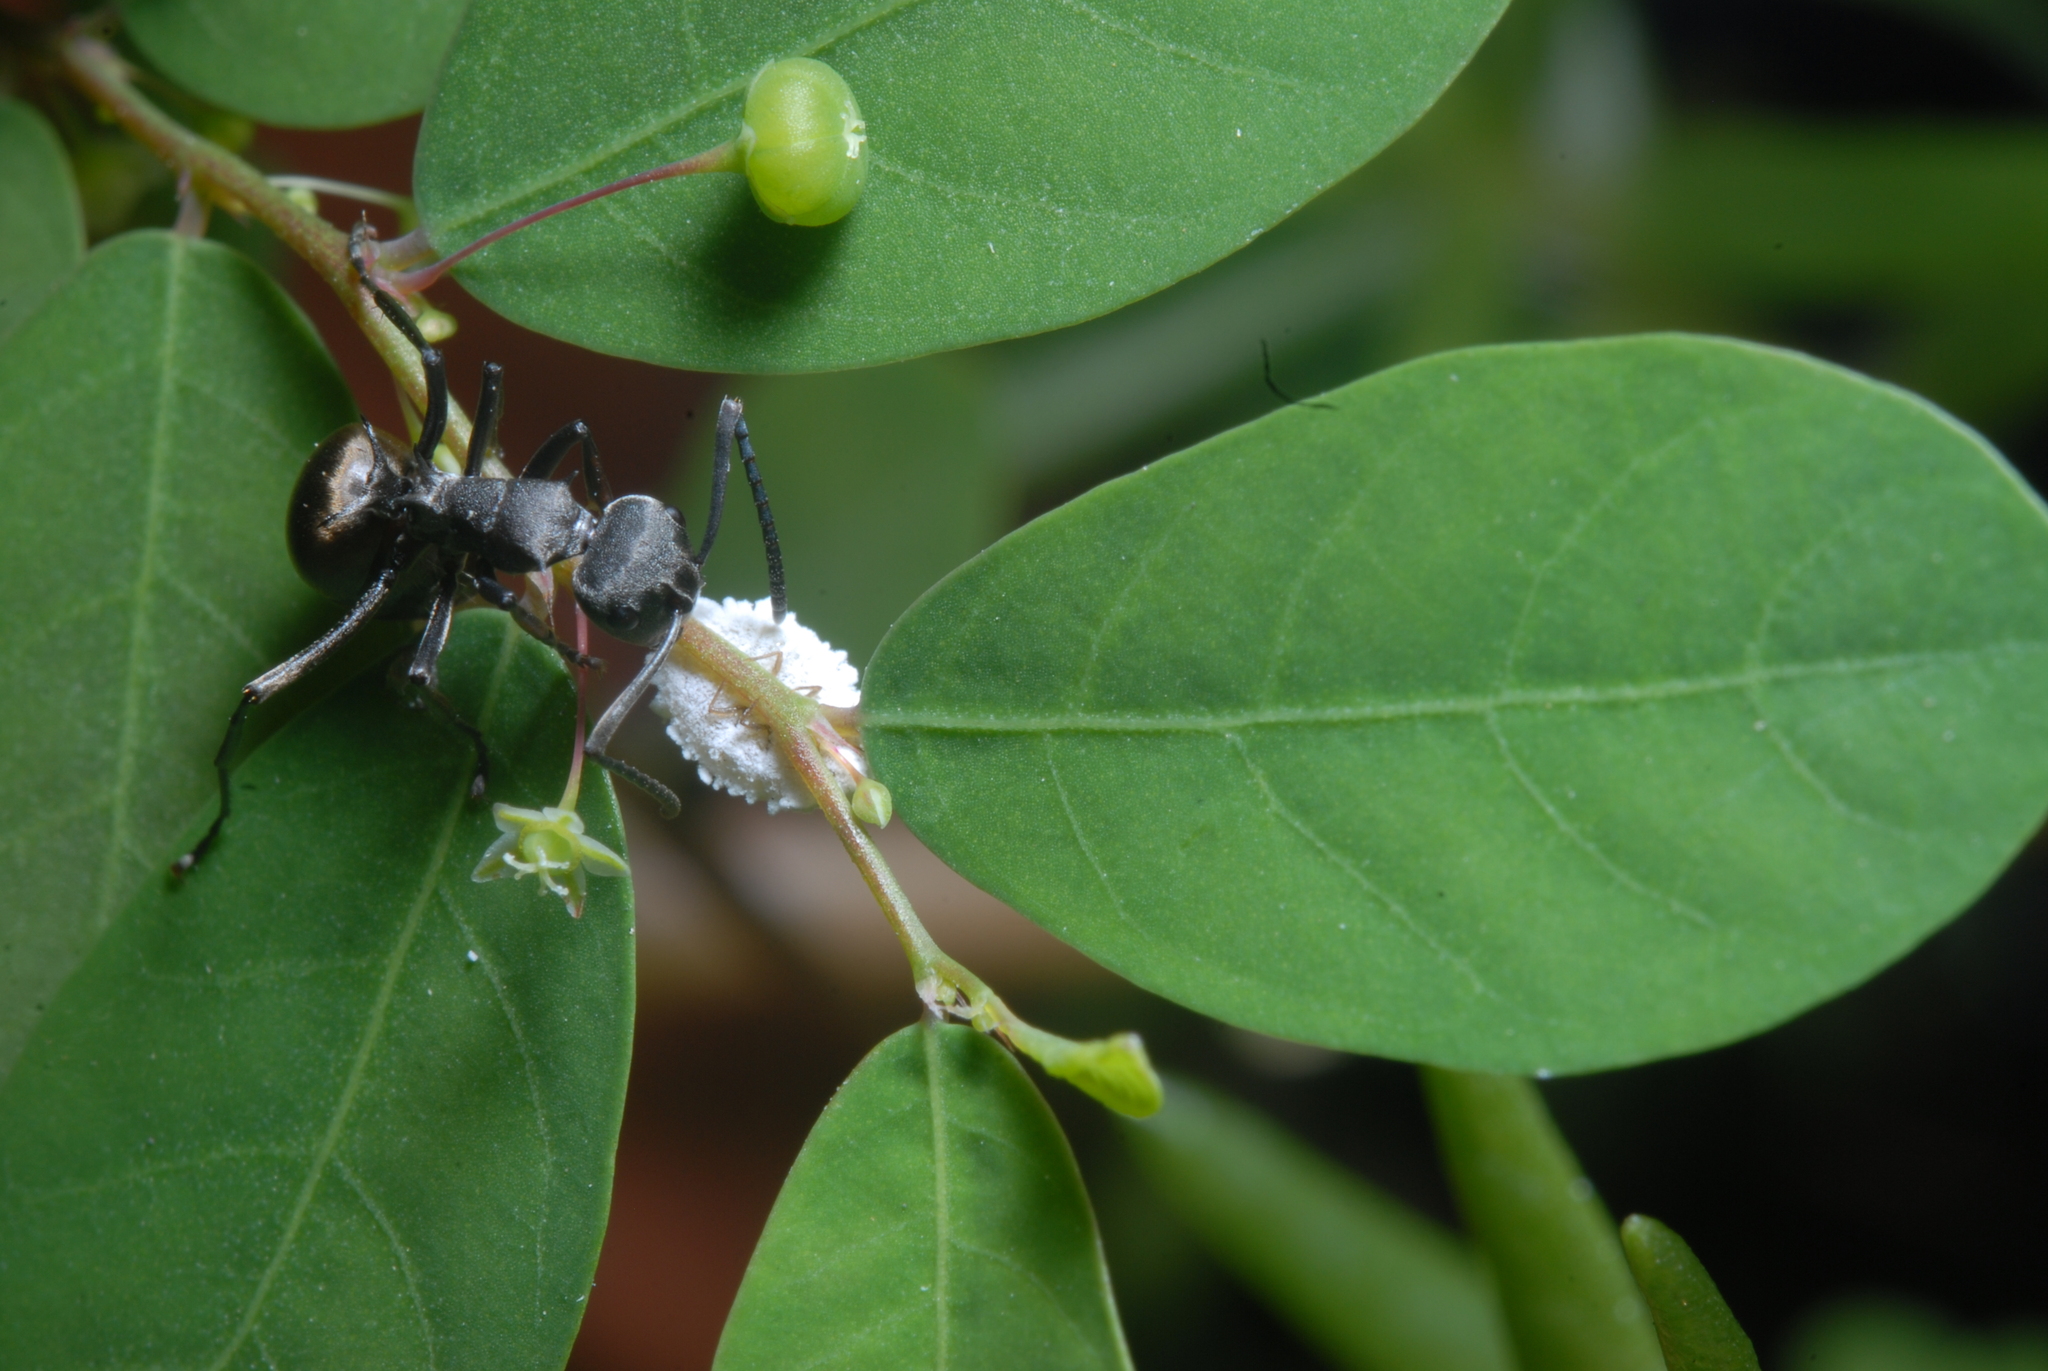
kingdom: Animalia
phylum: Arthropoda
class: Insecta
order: Hymenoptera
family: Formicidae
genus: Polyrhachis
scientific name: Polyrhachis dives
